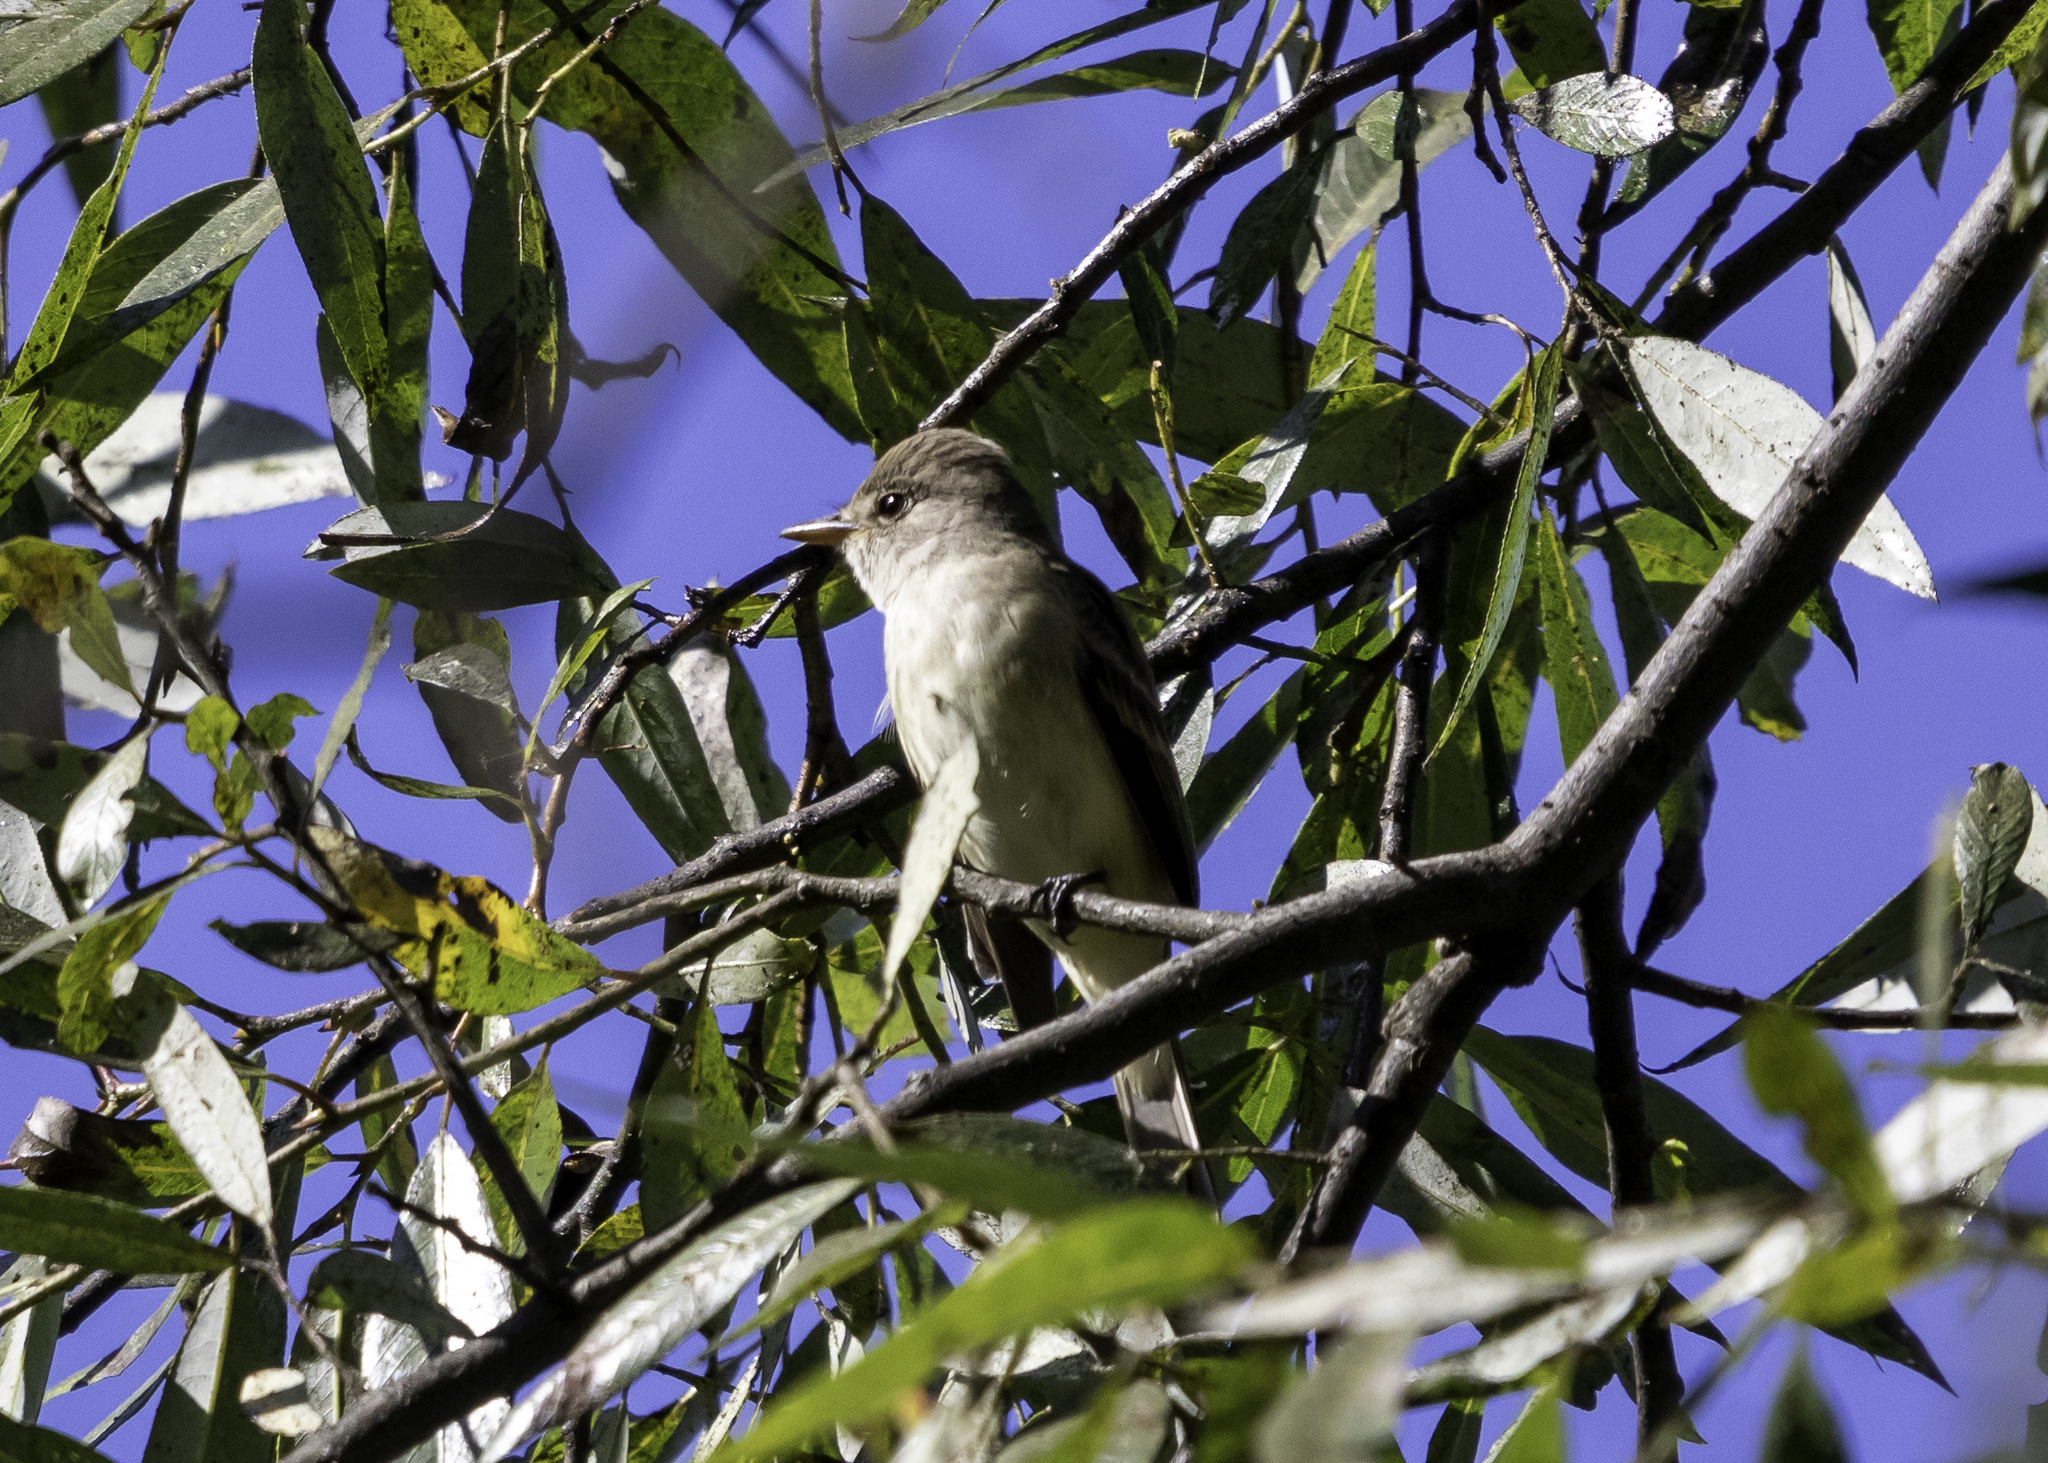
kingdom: Animalia
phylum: Chordata
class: Aves
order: Passeriformes
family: Tyrannidae
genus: Empidonax
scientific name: Empidonax traillii
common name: Willow flycatcher
